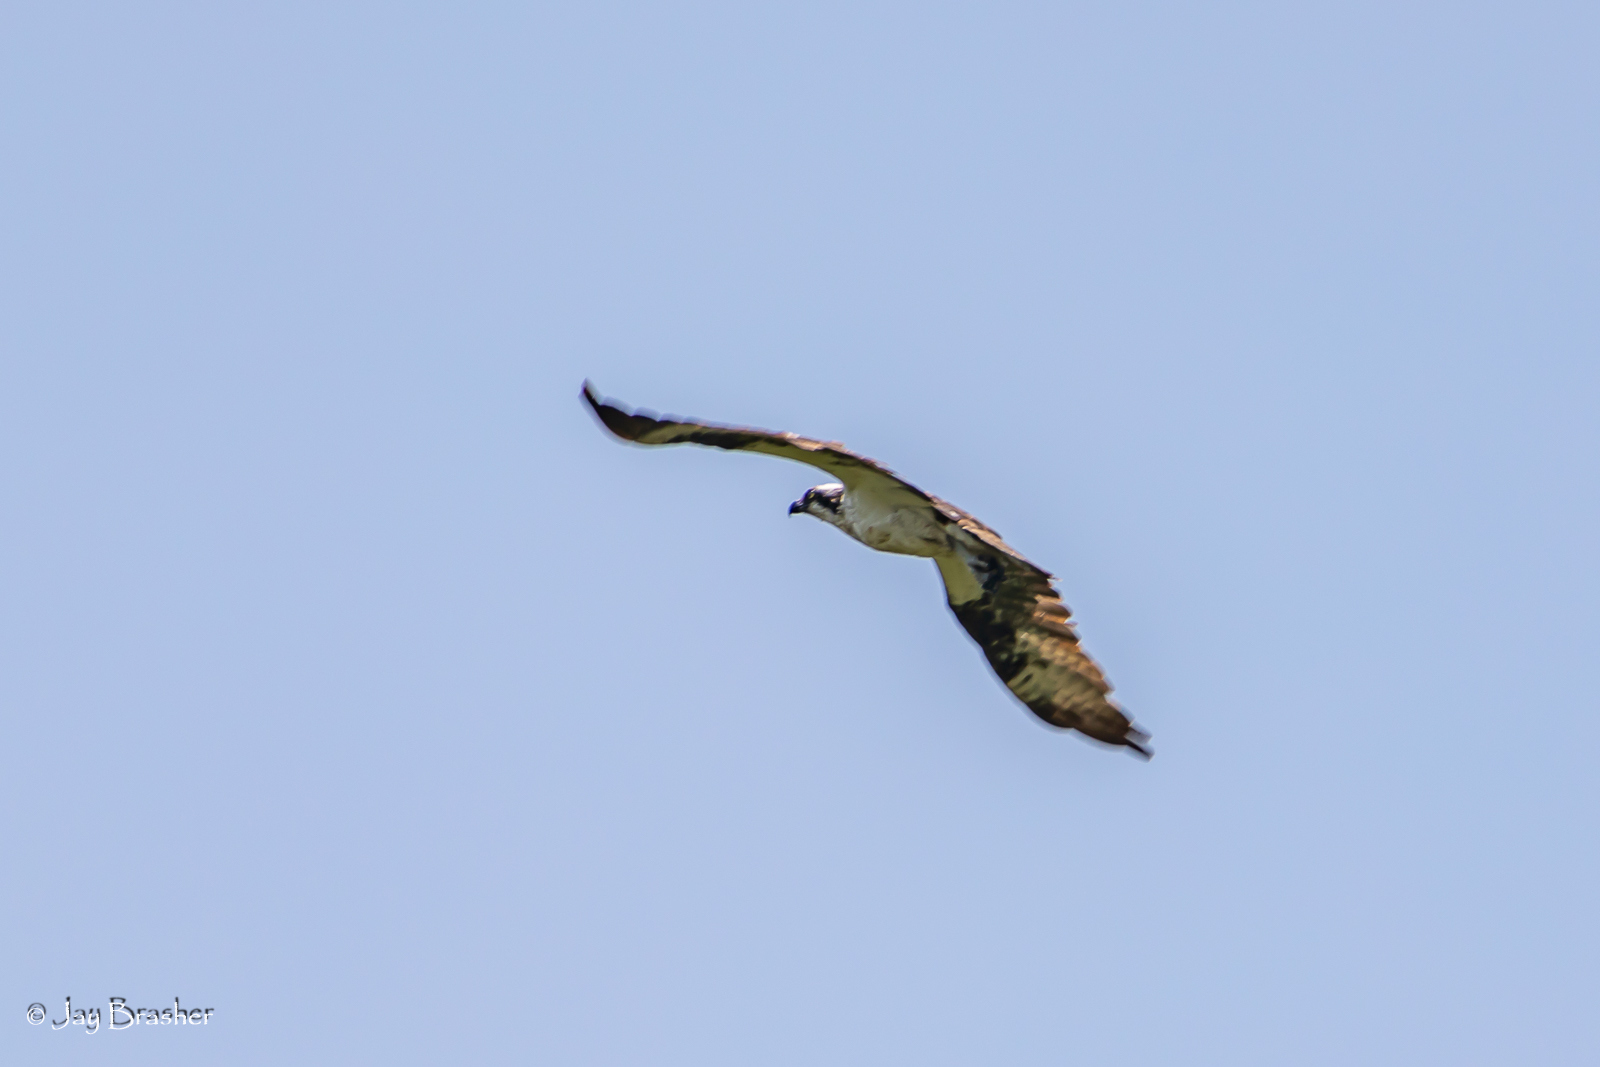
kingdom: Animalia
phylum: Chordata
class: Aves
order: Accipitriformes
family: Pandionidae
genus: Pandion
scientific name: Pandion haliaetus
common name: Osprey
